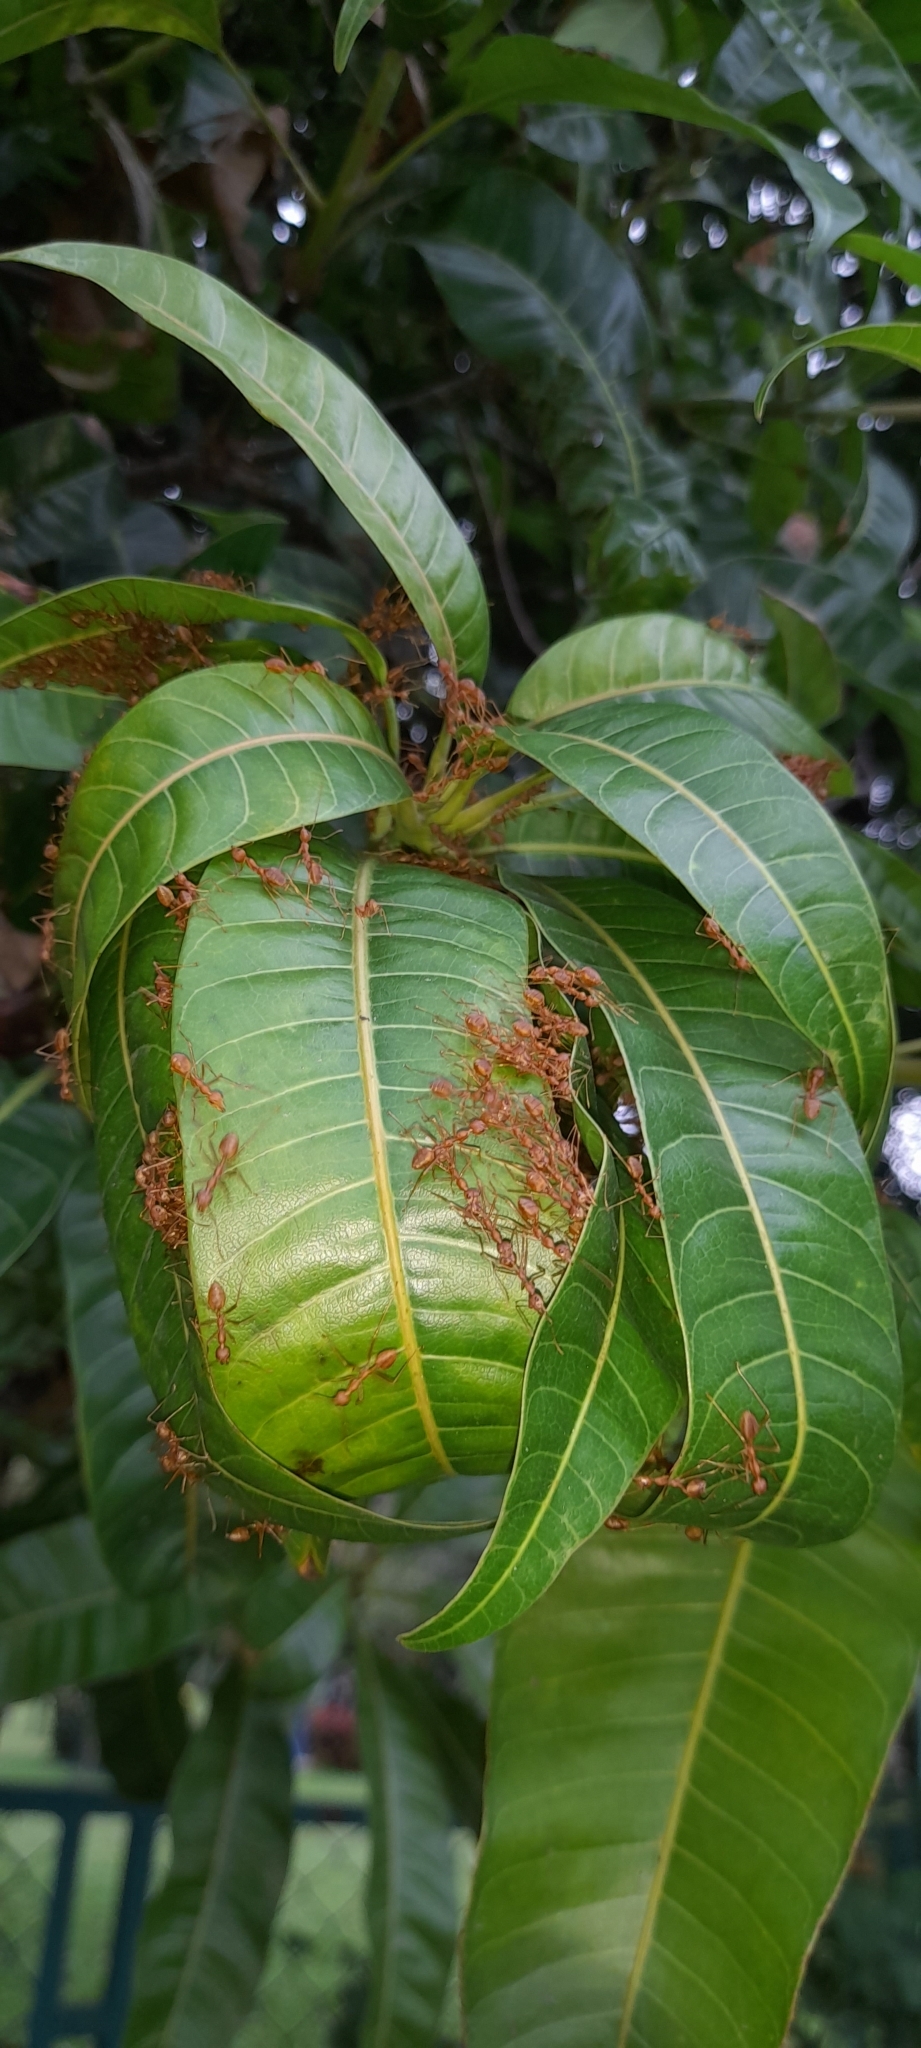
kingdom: Animalia
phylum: Arthropoda
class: Insecta
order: Hymenoptera
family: Formicidae
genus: Oecophylla
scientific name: Oecophylla smaragdina
